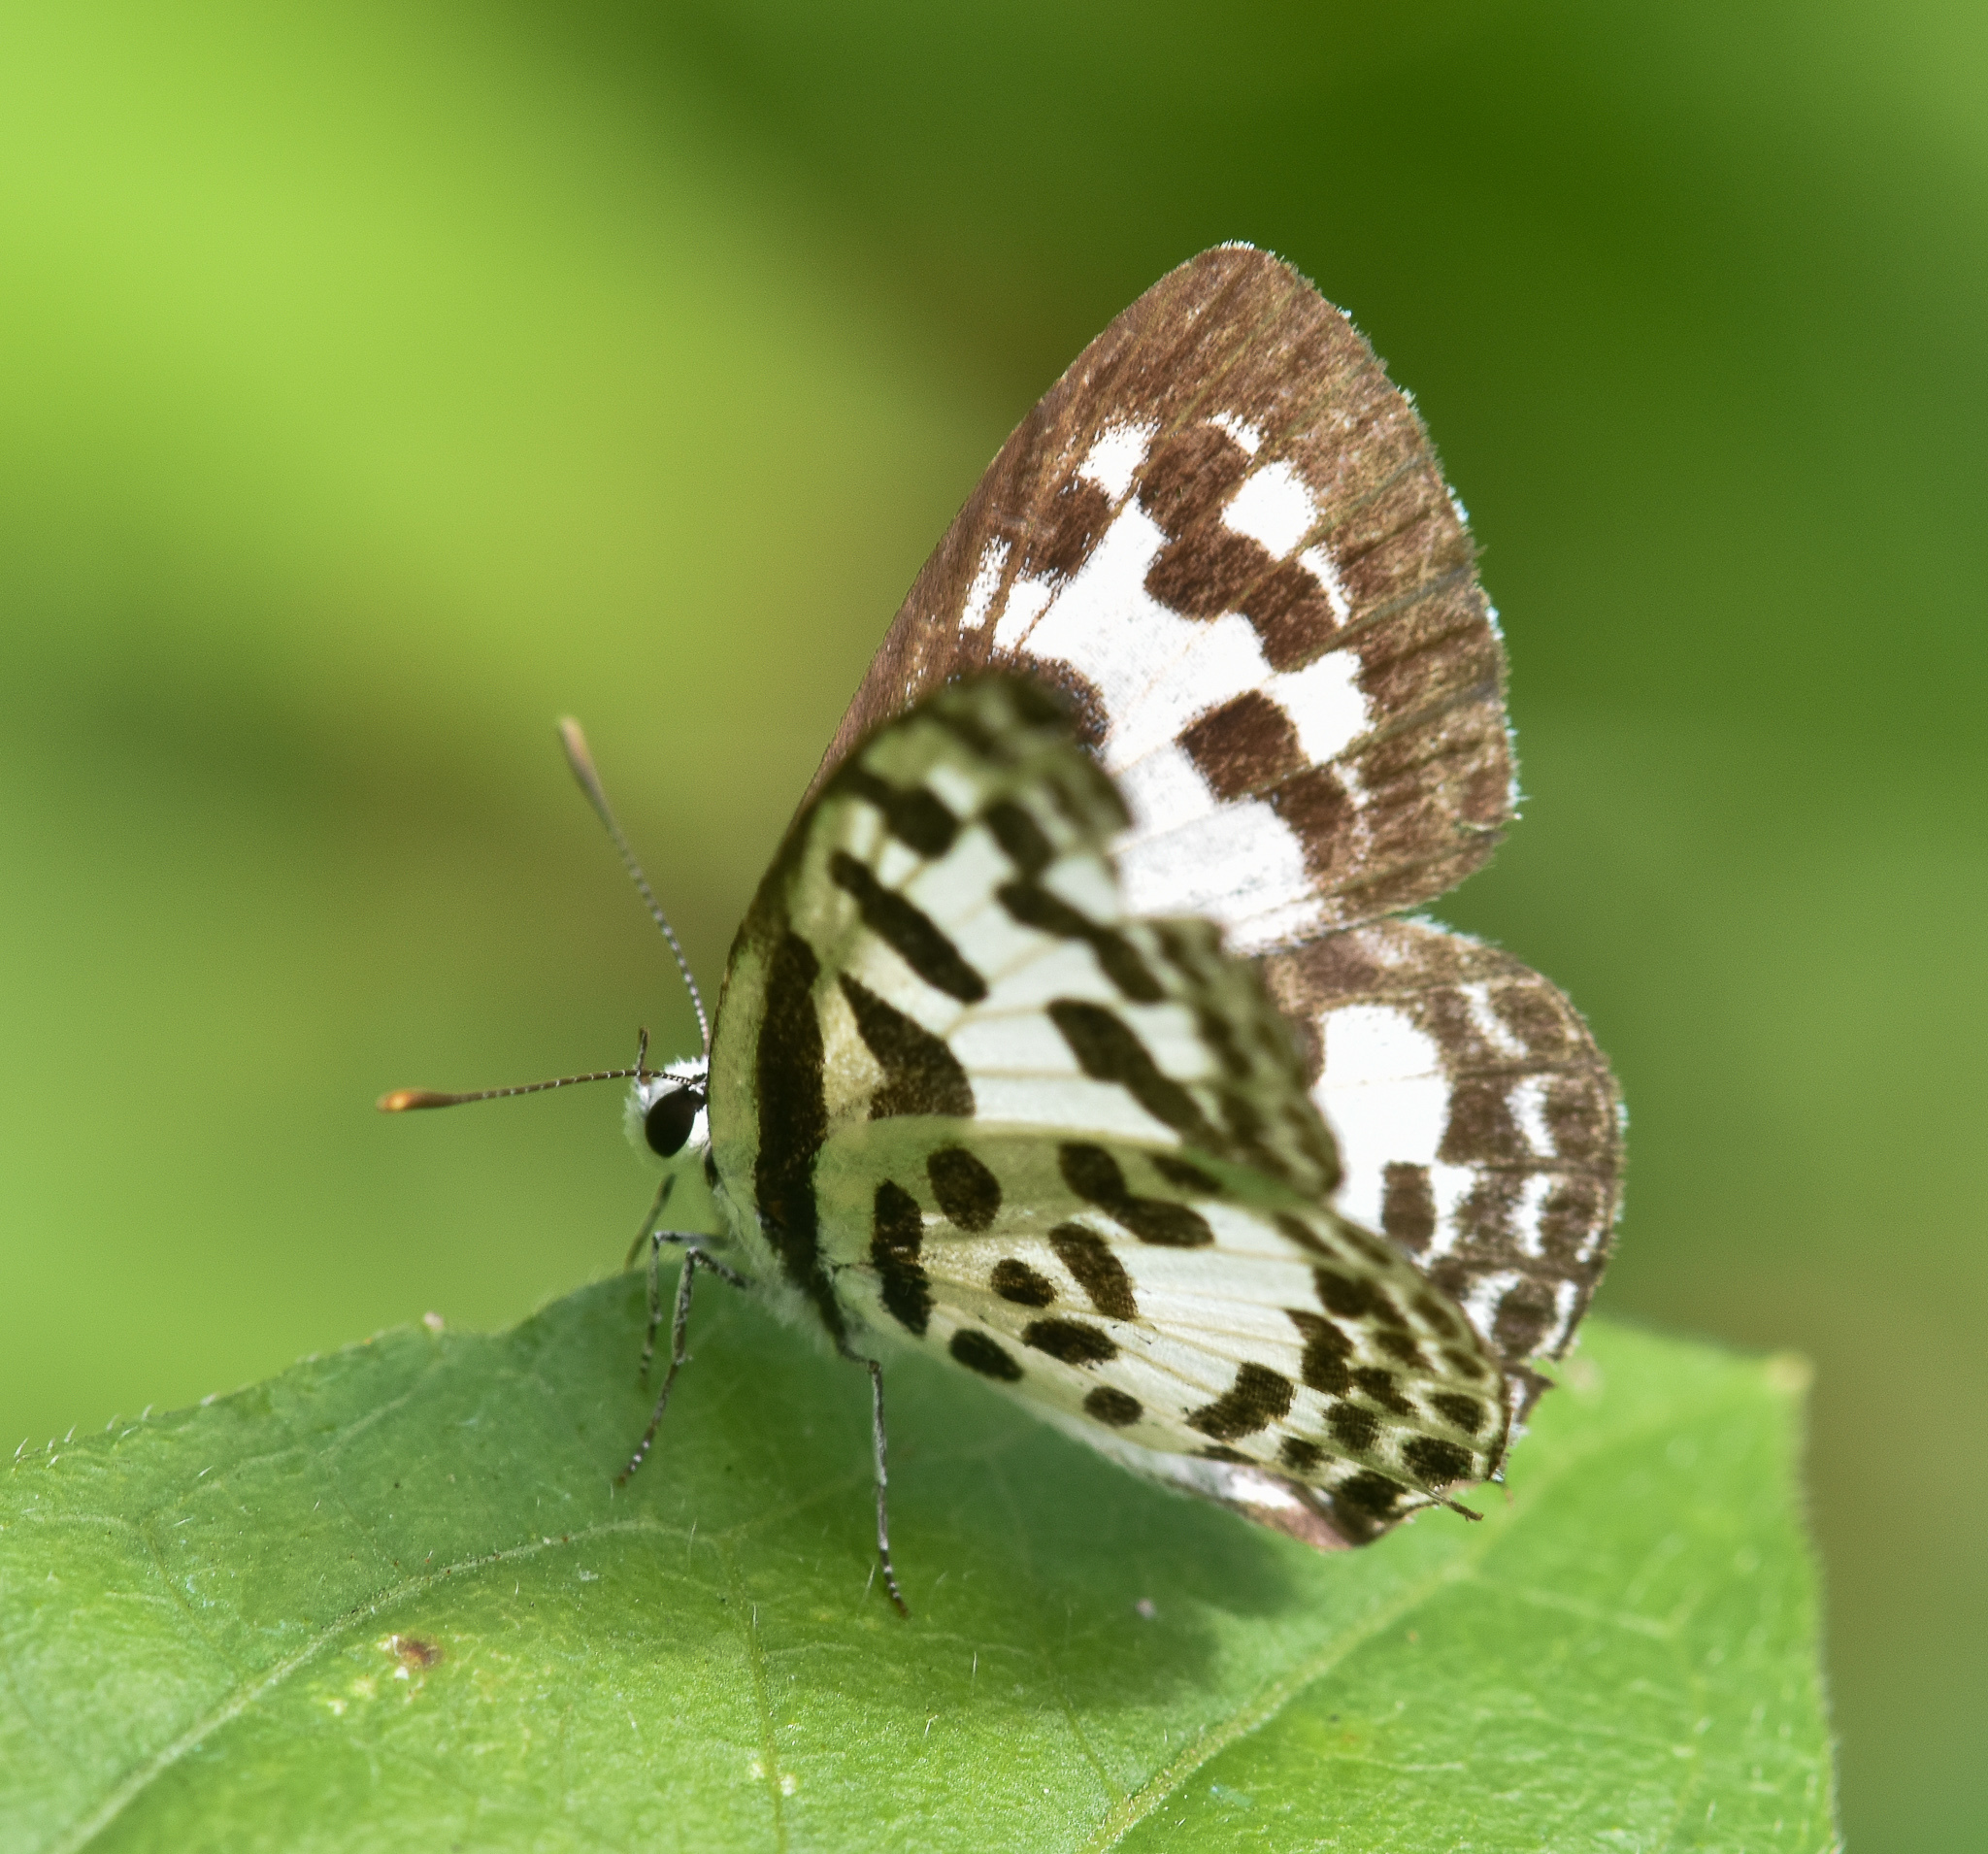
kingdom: Animalia
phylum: Arthropoda
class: Insecta
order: Lepidoptera
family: Lycaenidae
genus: Castalius
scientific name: Castalius rosimon
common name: Common pierrot
